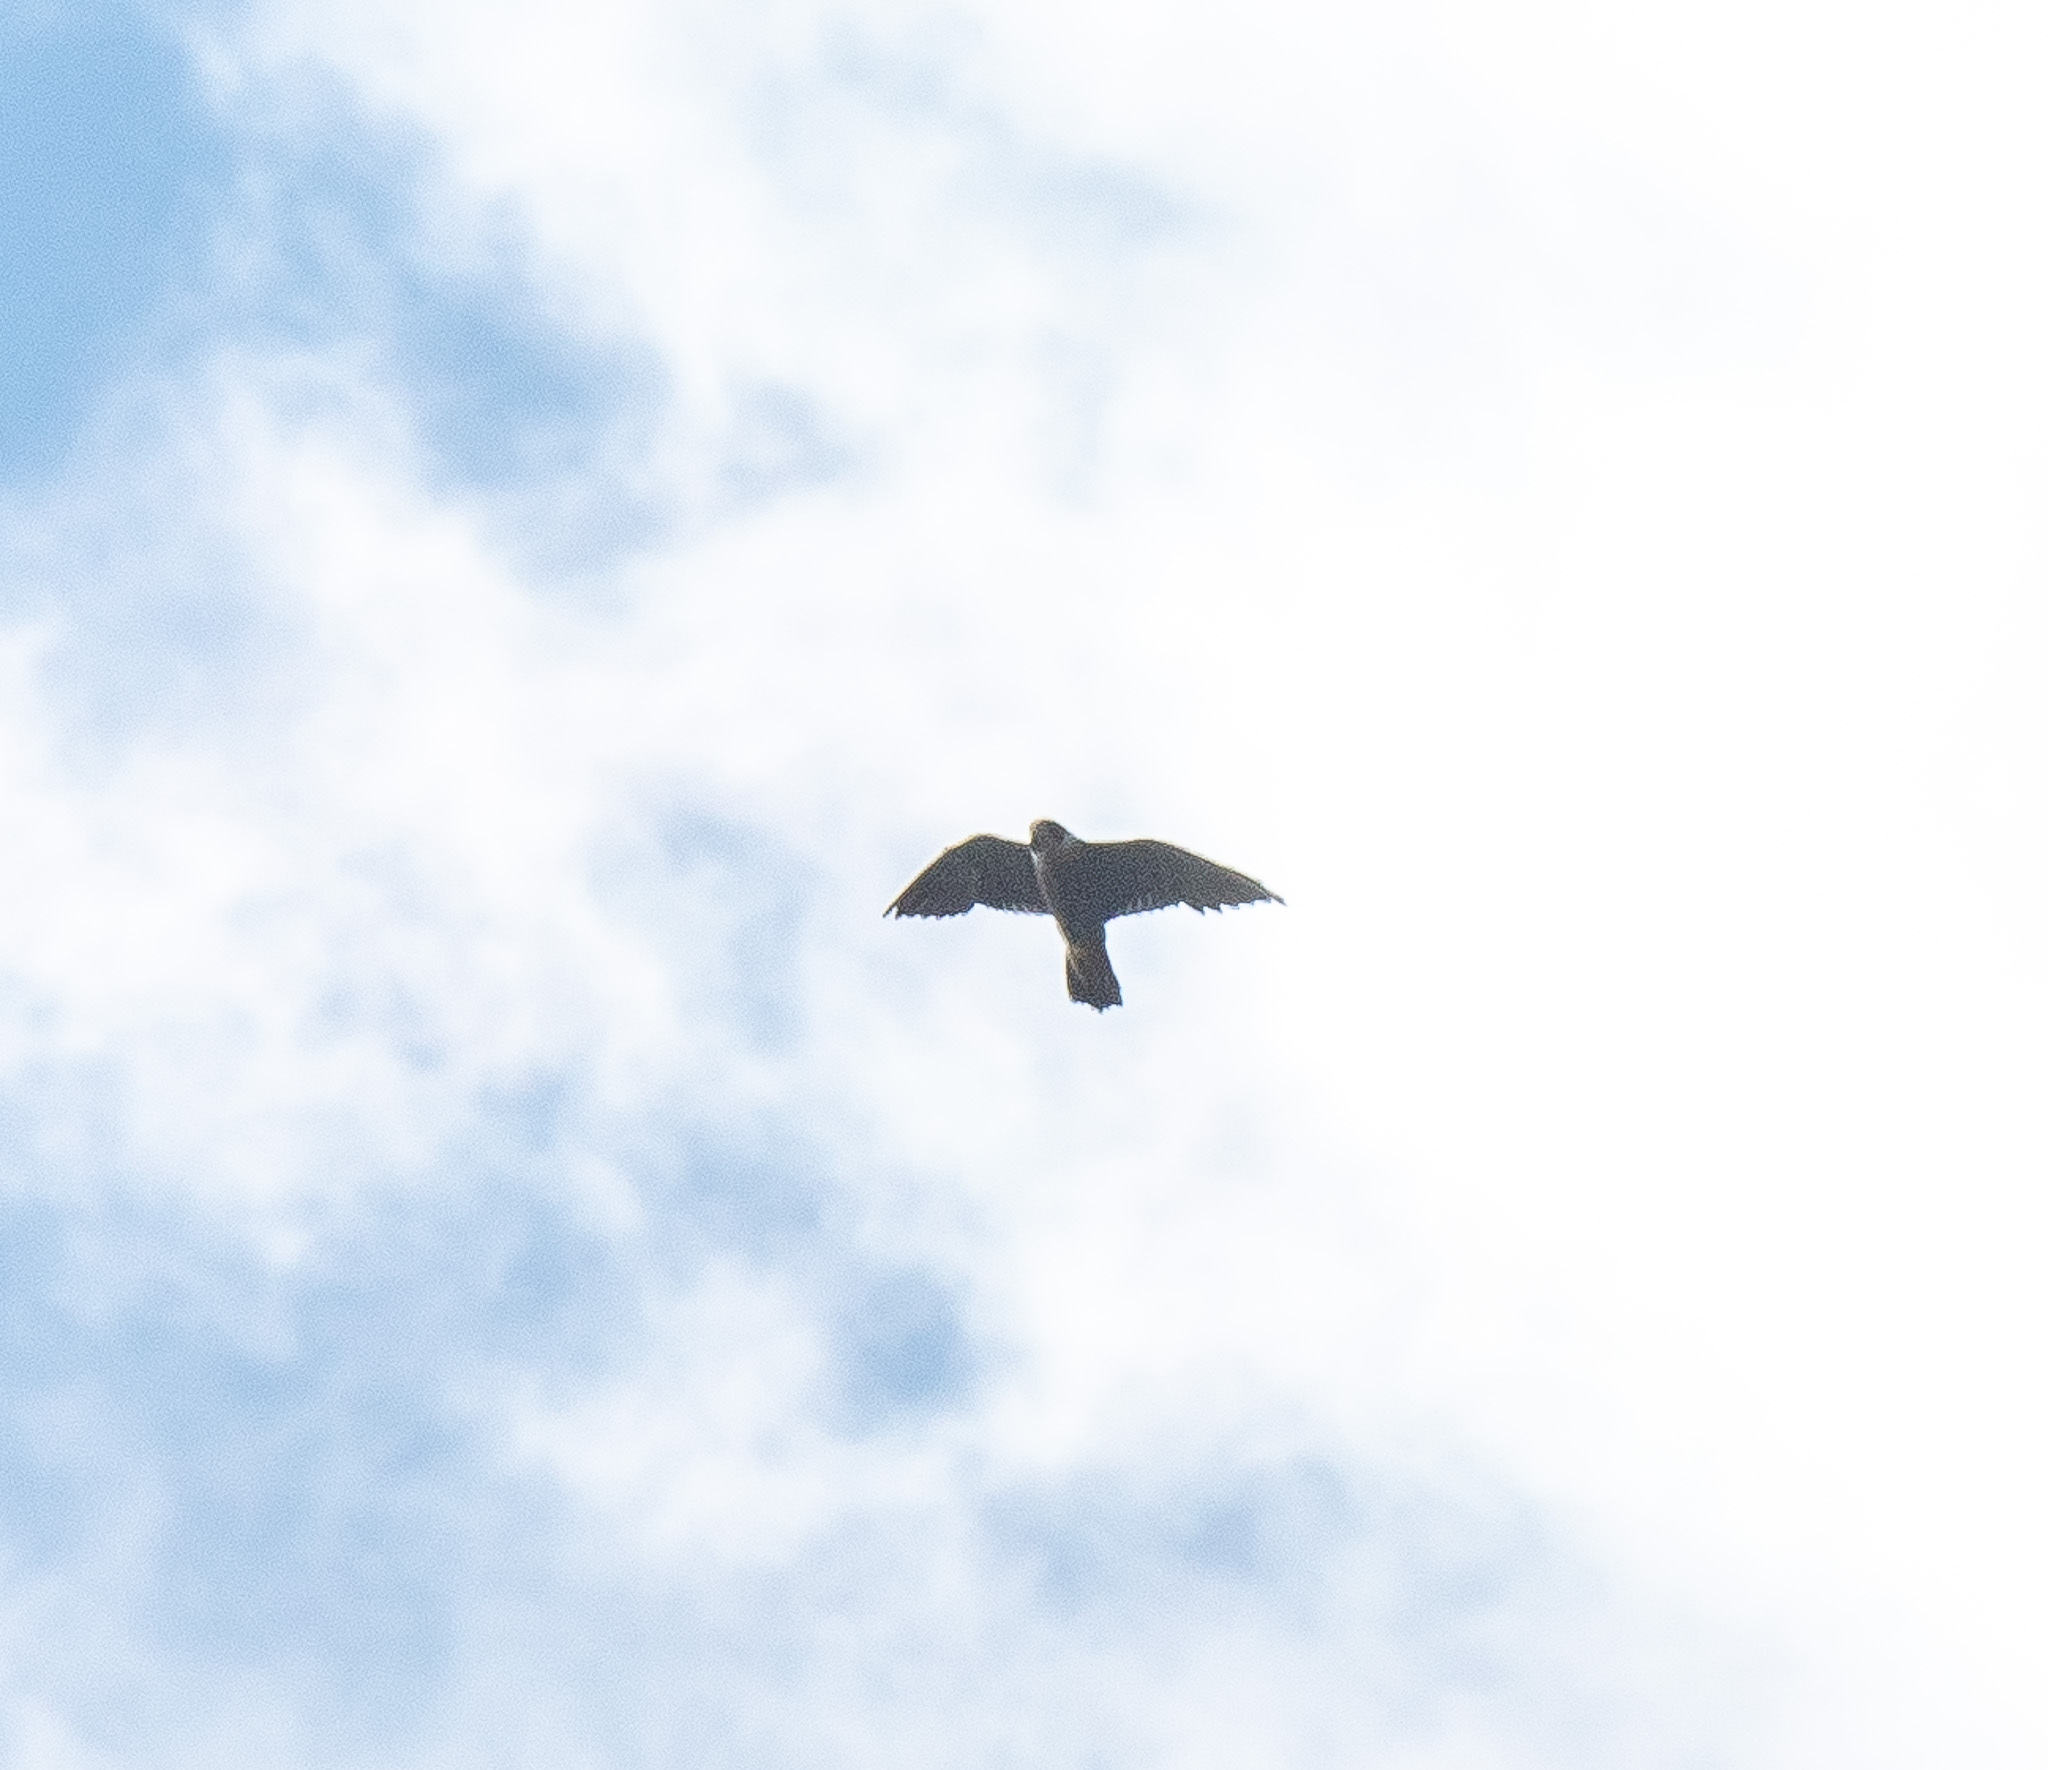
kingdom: Animalia
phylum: Chordata
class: Aves
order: Falconiformes
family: Falconidae
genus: Falco
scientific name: Falco peregrinus
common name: Peregrine falcon
